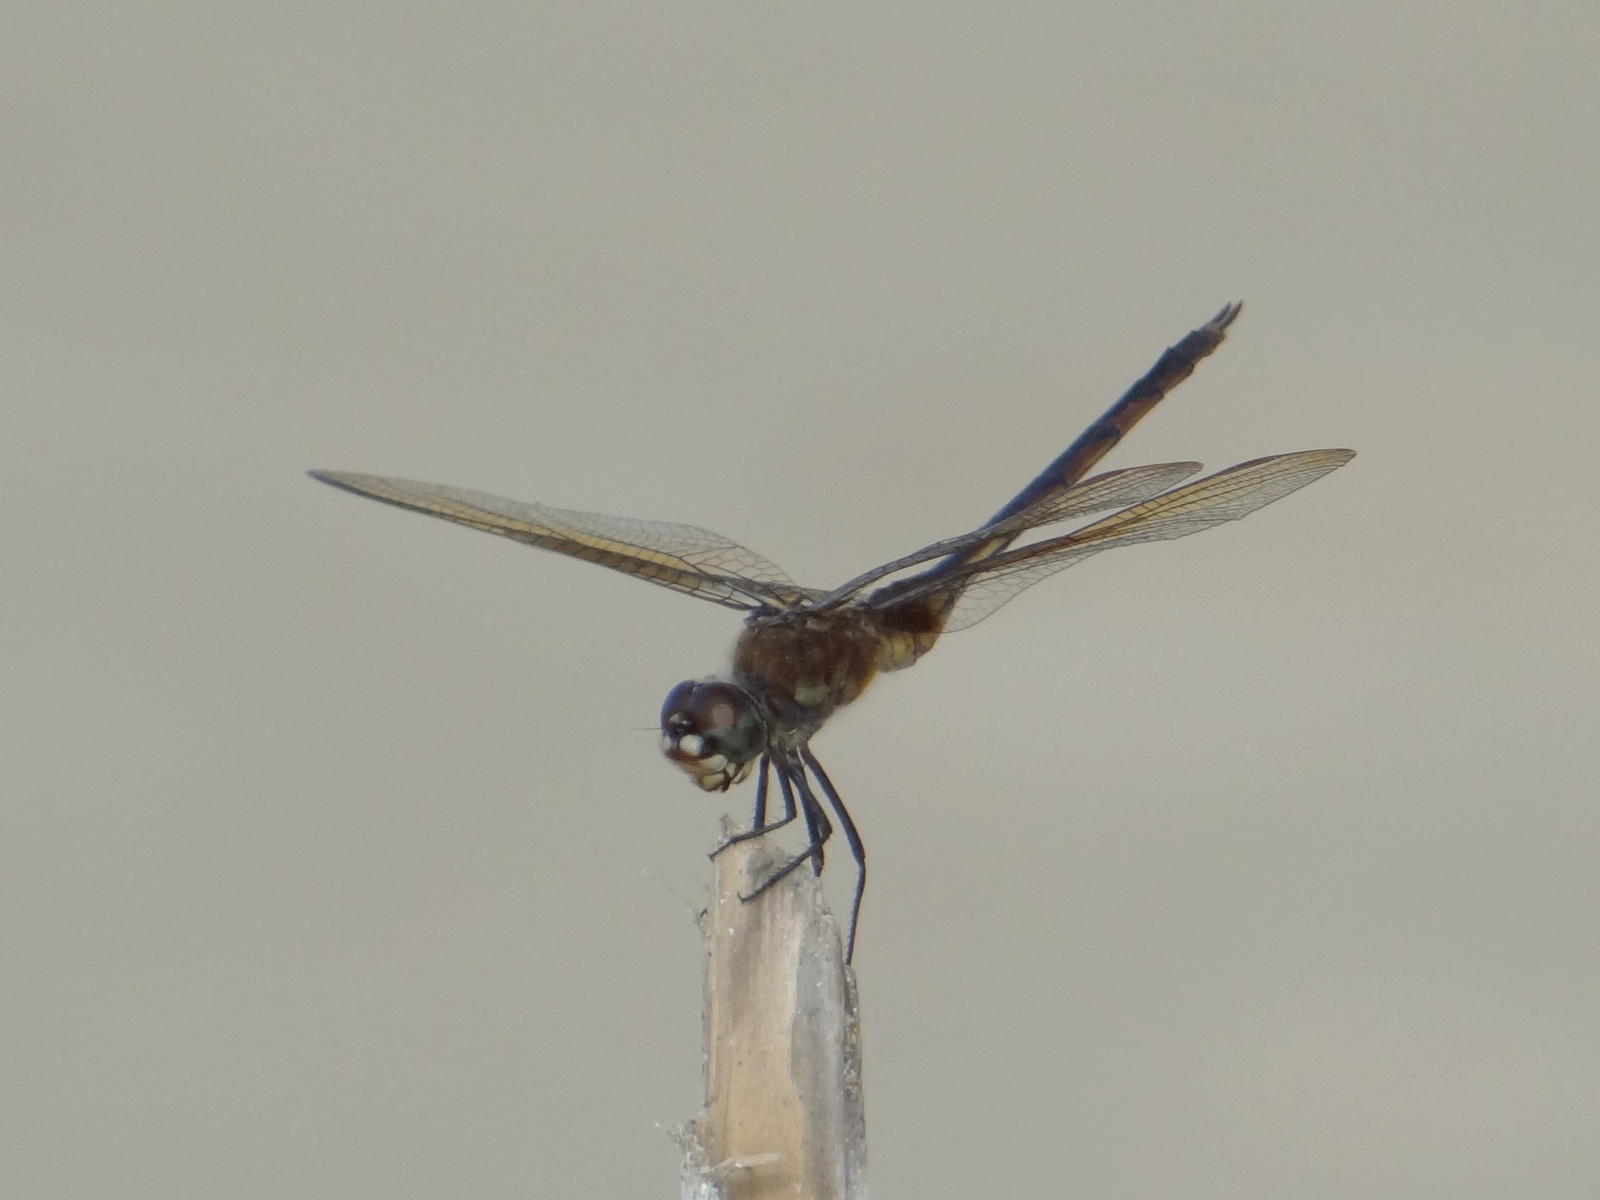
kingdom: Animalia
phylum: Arthropoda
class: Insecta
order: Odonata
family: Libellulidae
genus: Brachymesia
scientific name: Brachymesia herbida
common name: Tawny pennant
